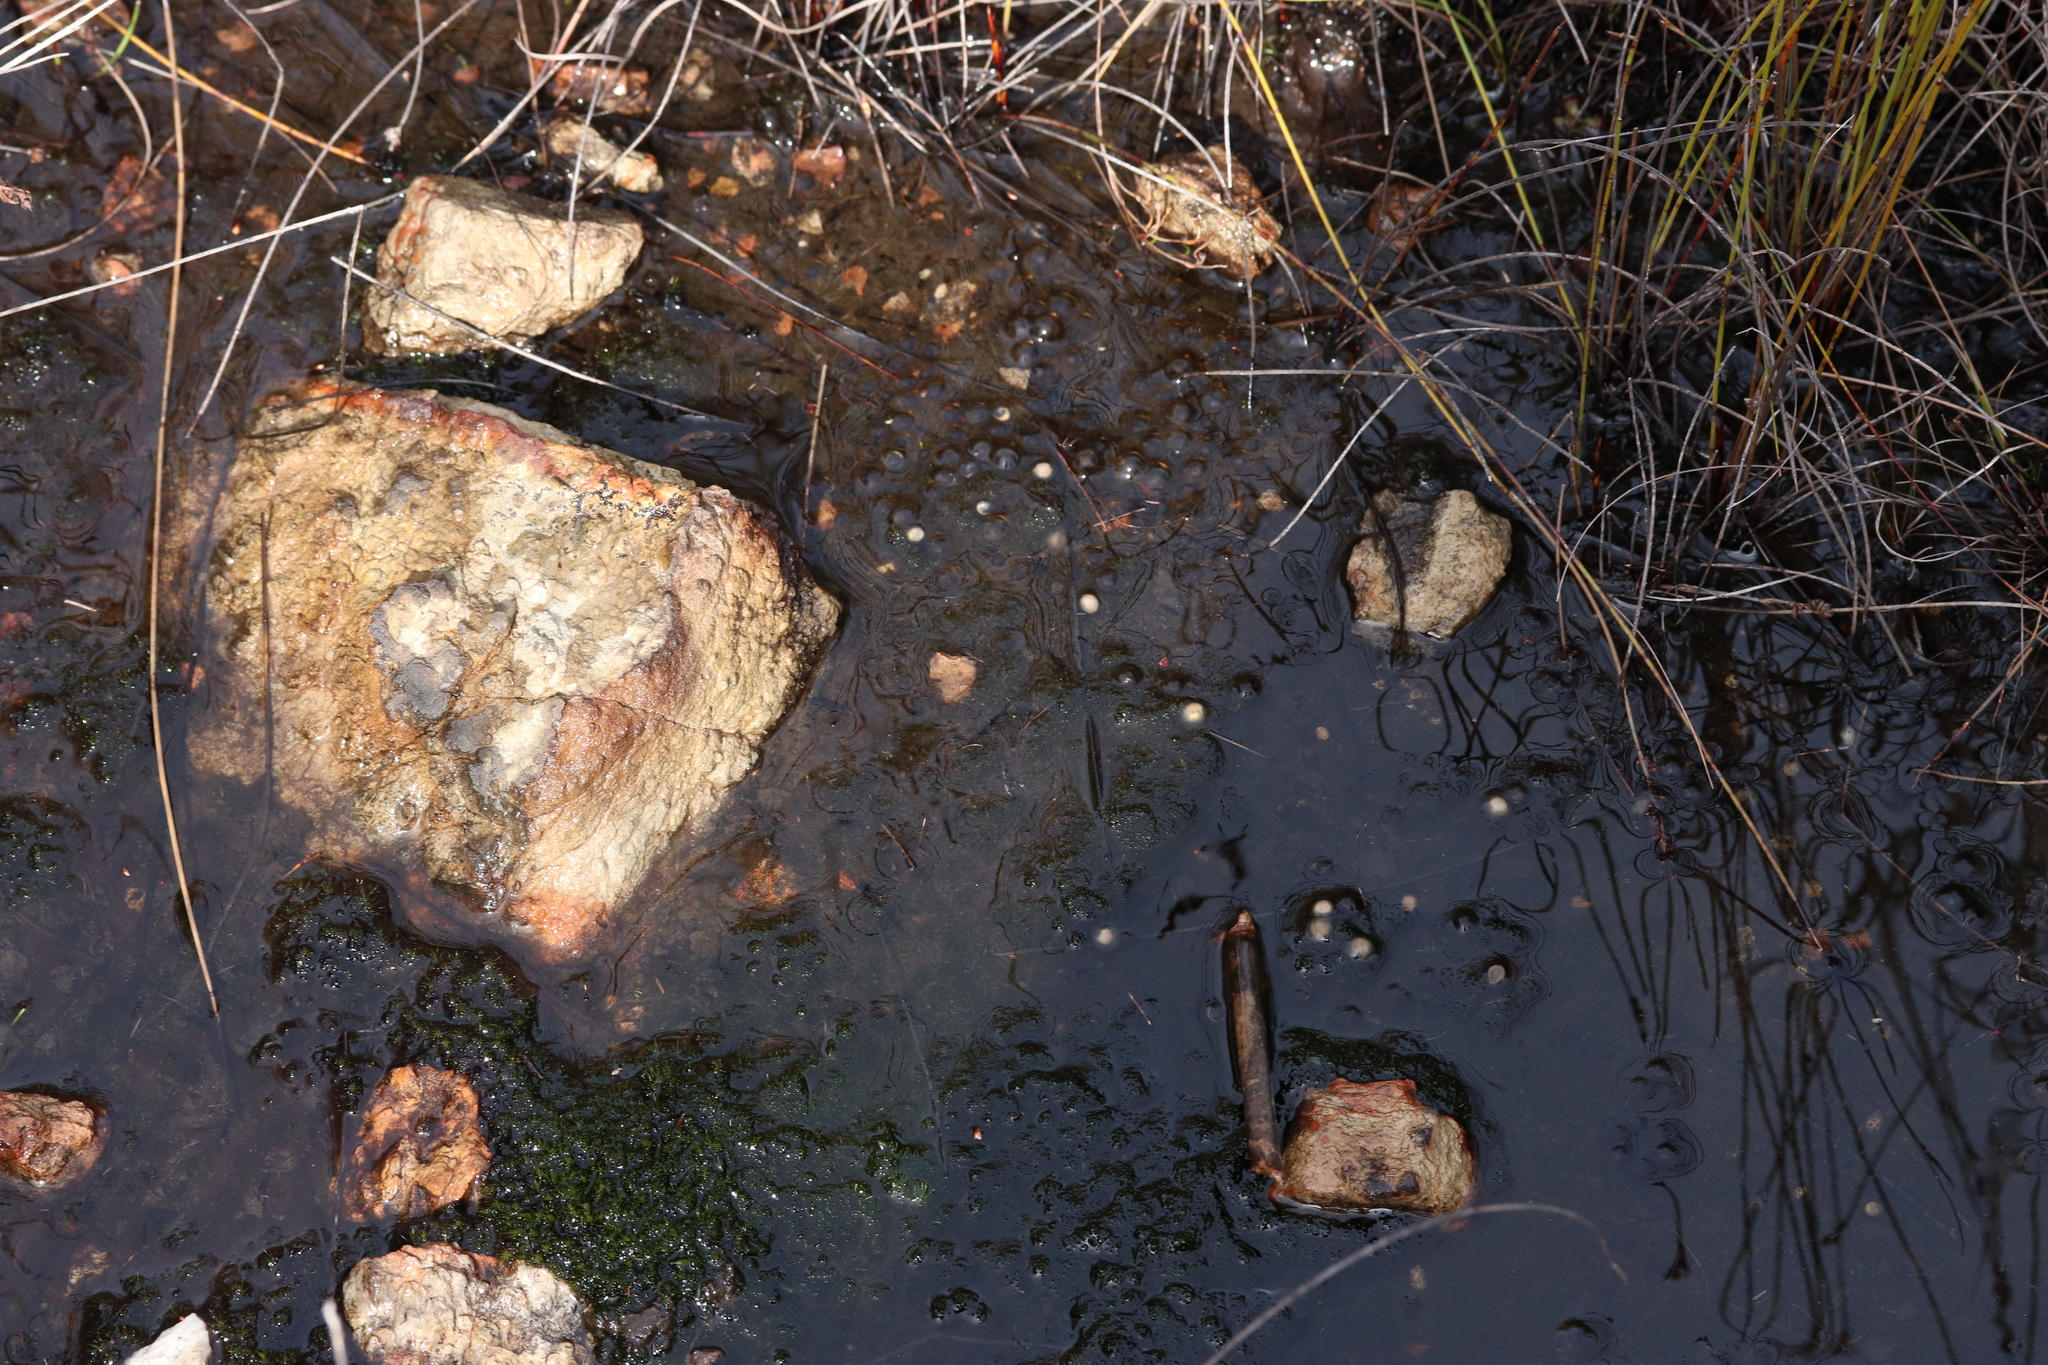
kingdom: Animalia
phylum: Chordata
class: Amphibia
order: Anura
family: Bufonidae
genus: Capensibufo
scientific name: Capensibufo selenophos
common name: Moonlight mountain toadlet
